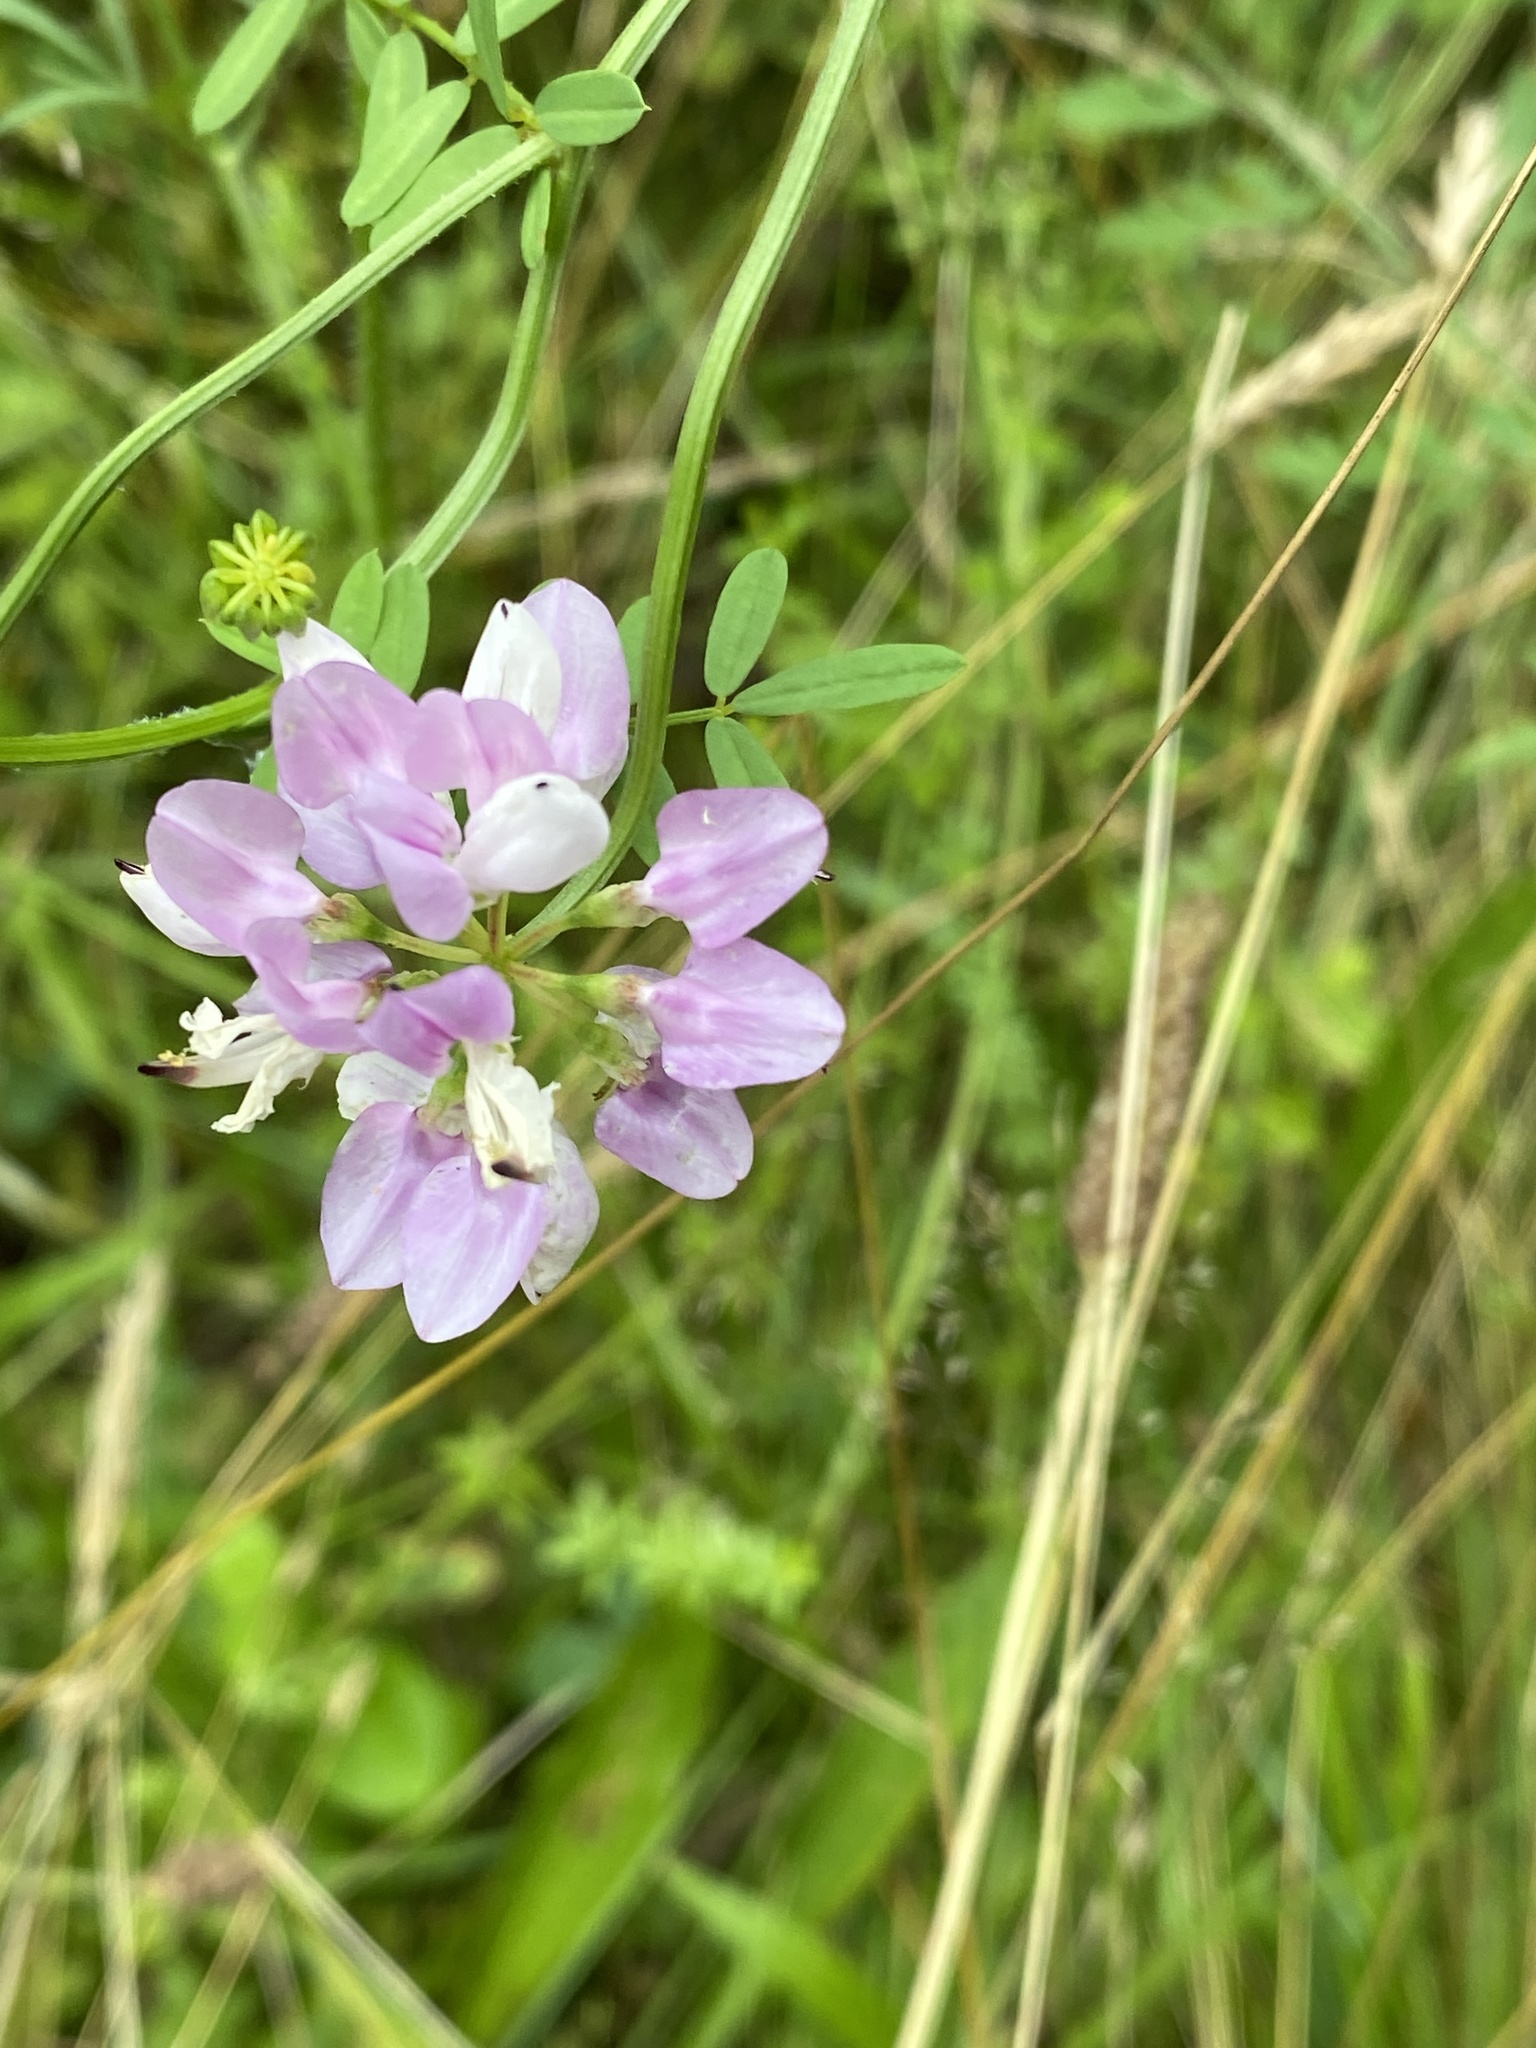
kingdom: Plantae
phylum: Tracheophyta
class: Magnoliopsida
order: Fabales
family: Fabaceae
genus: Coronilla
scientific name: Coronilla varia
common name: Crownvetch
